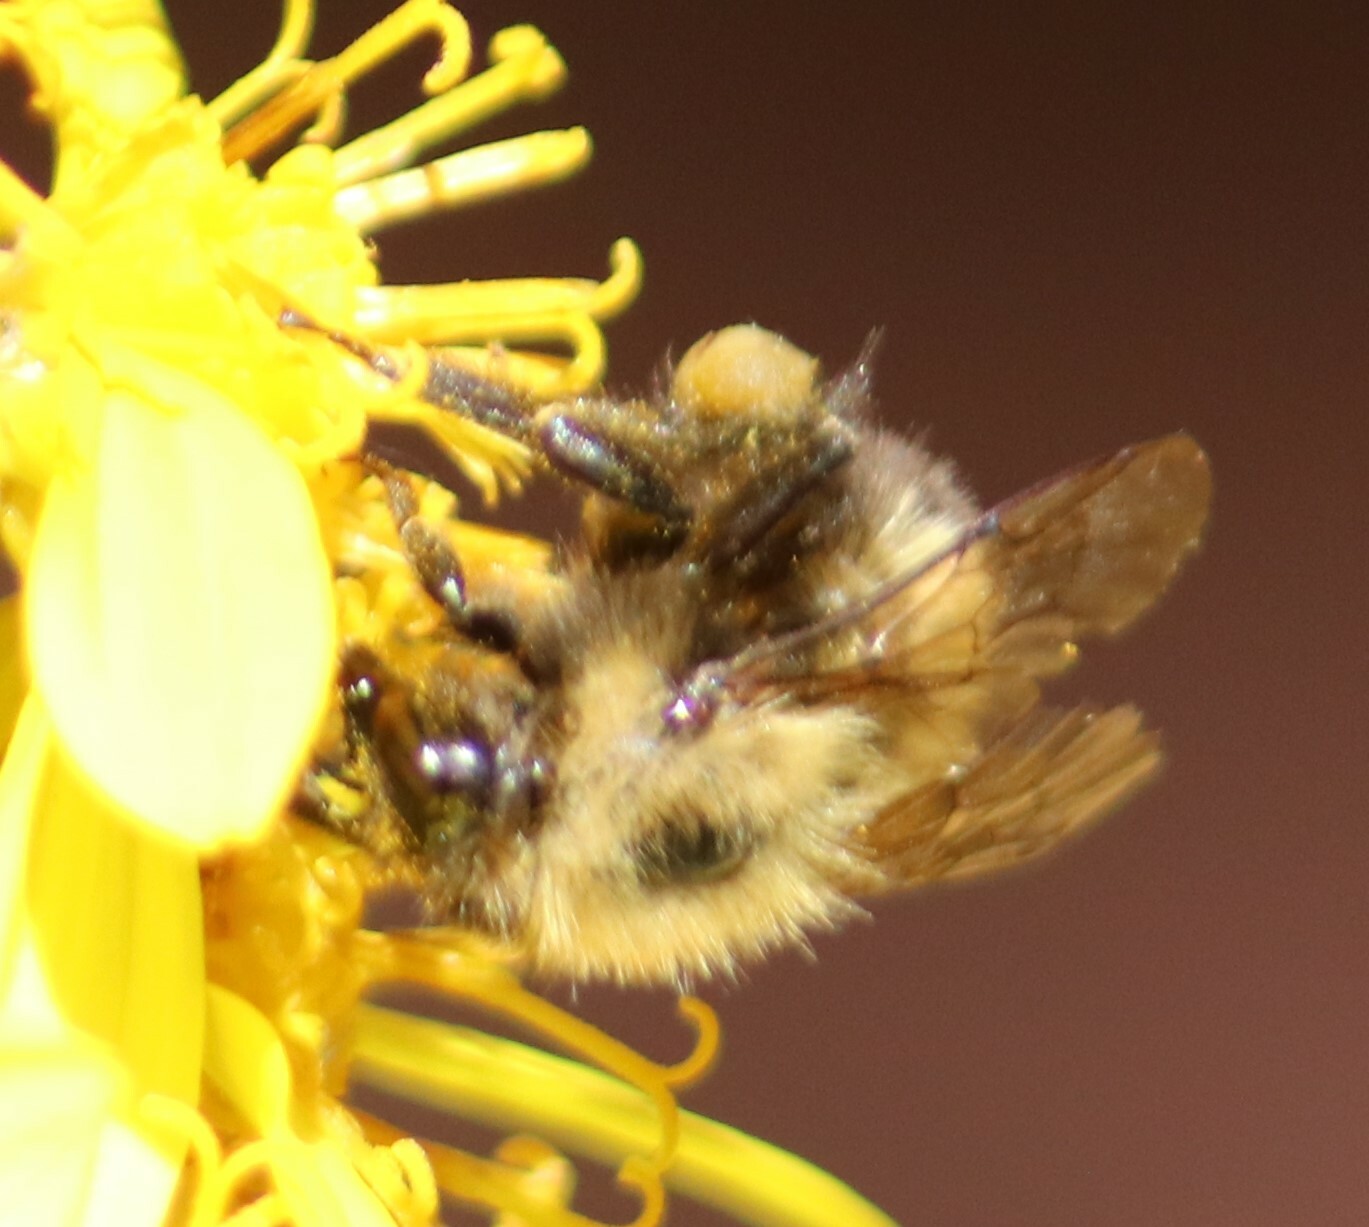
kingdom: Animalia
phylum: Arthropoda
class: Insecta
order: Hymenoptera
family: Apidae
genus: Bombus
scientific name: Bombus perplexus
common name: Confusing bumble bee
